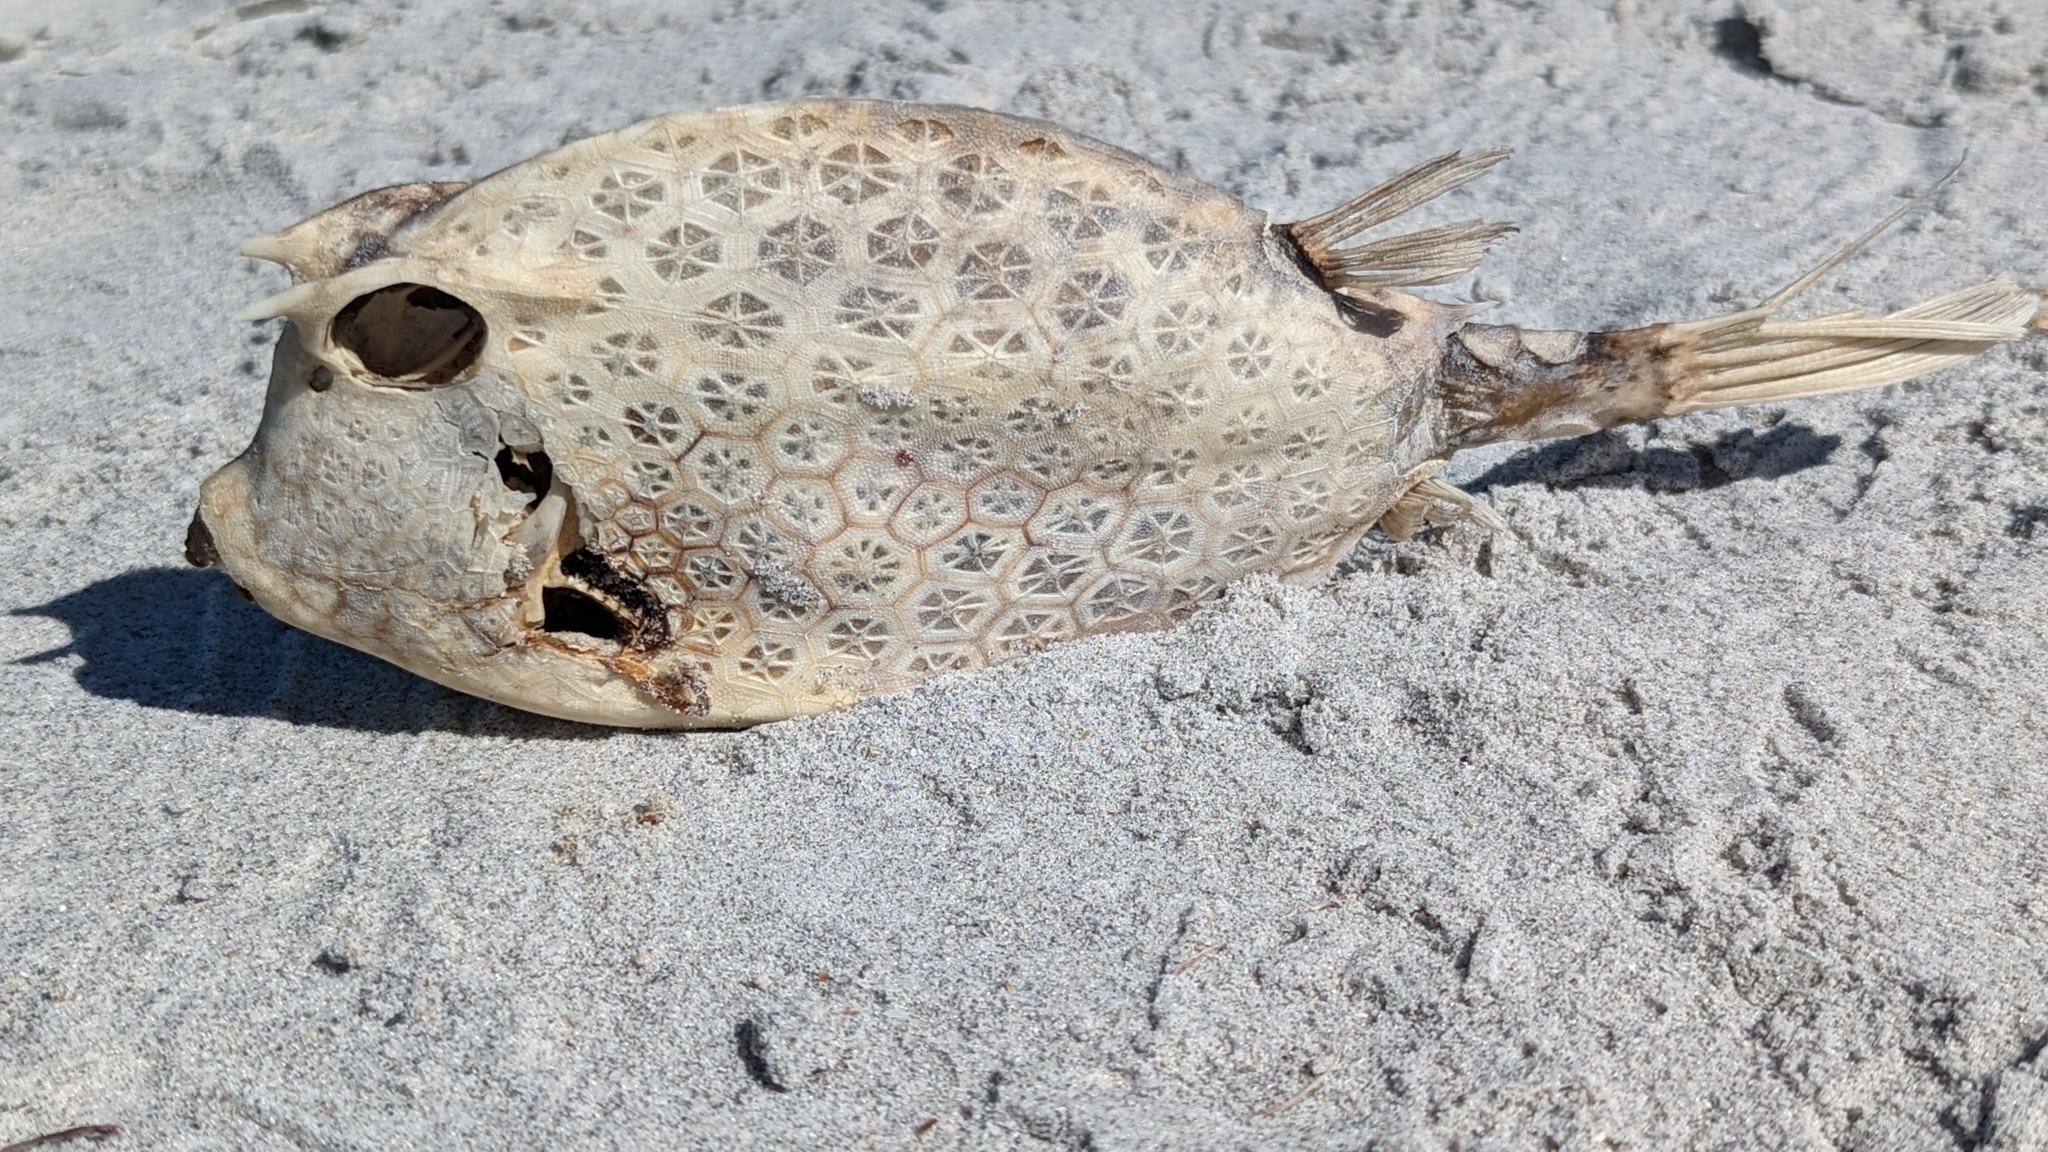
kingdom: Animalia
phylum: Chordata
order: Tetraodontiformes
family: Ostraciidae
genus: Acanthostracion
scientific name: Acanthostracion quadricornis
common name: Scrawled cowfish
